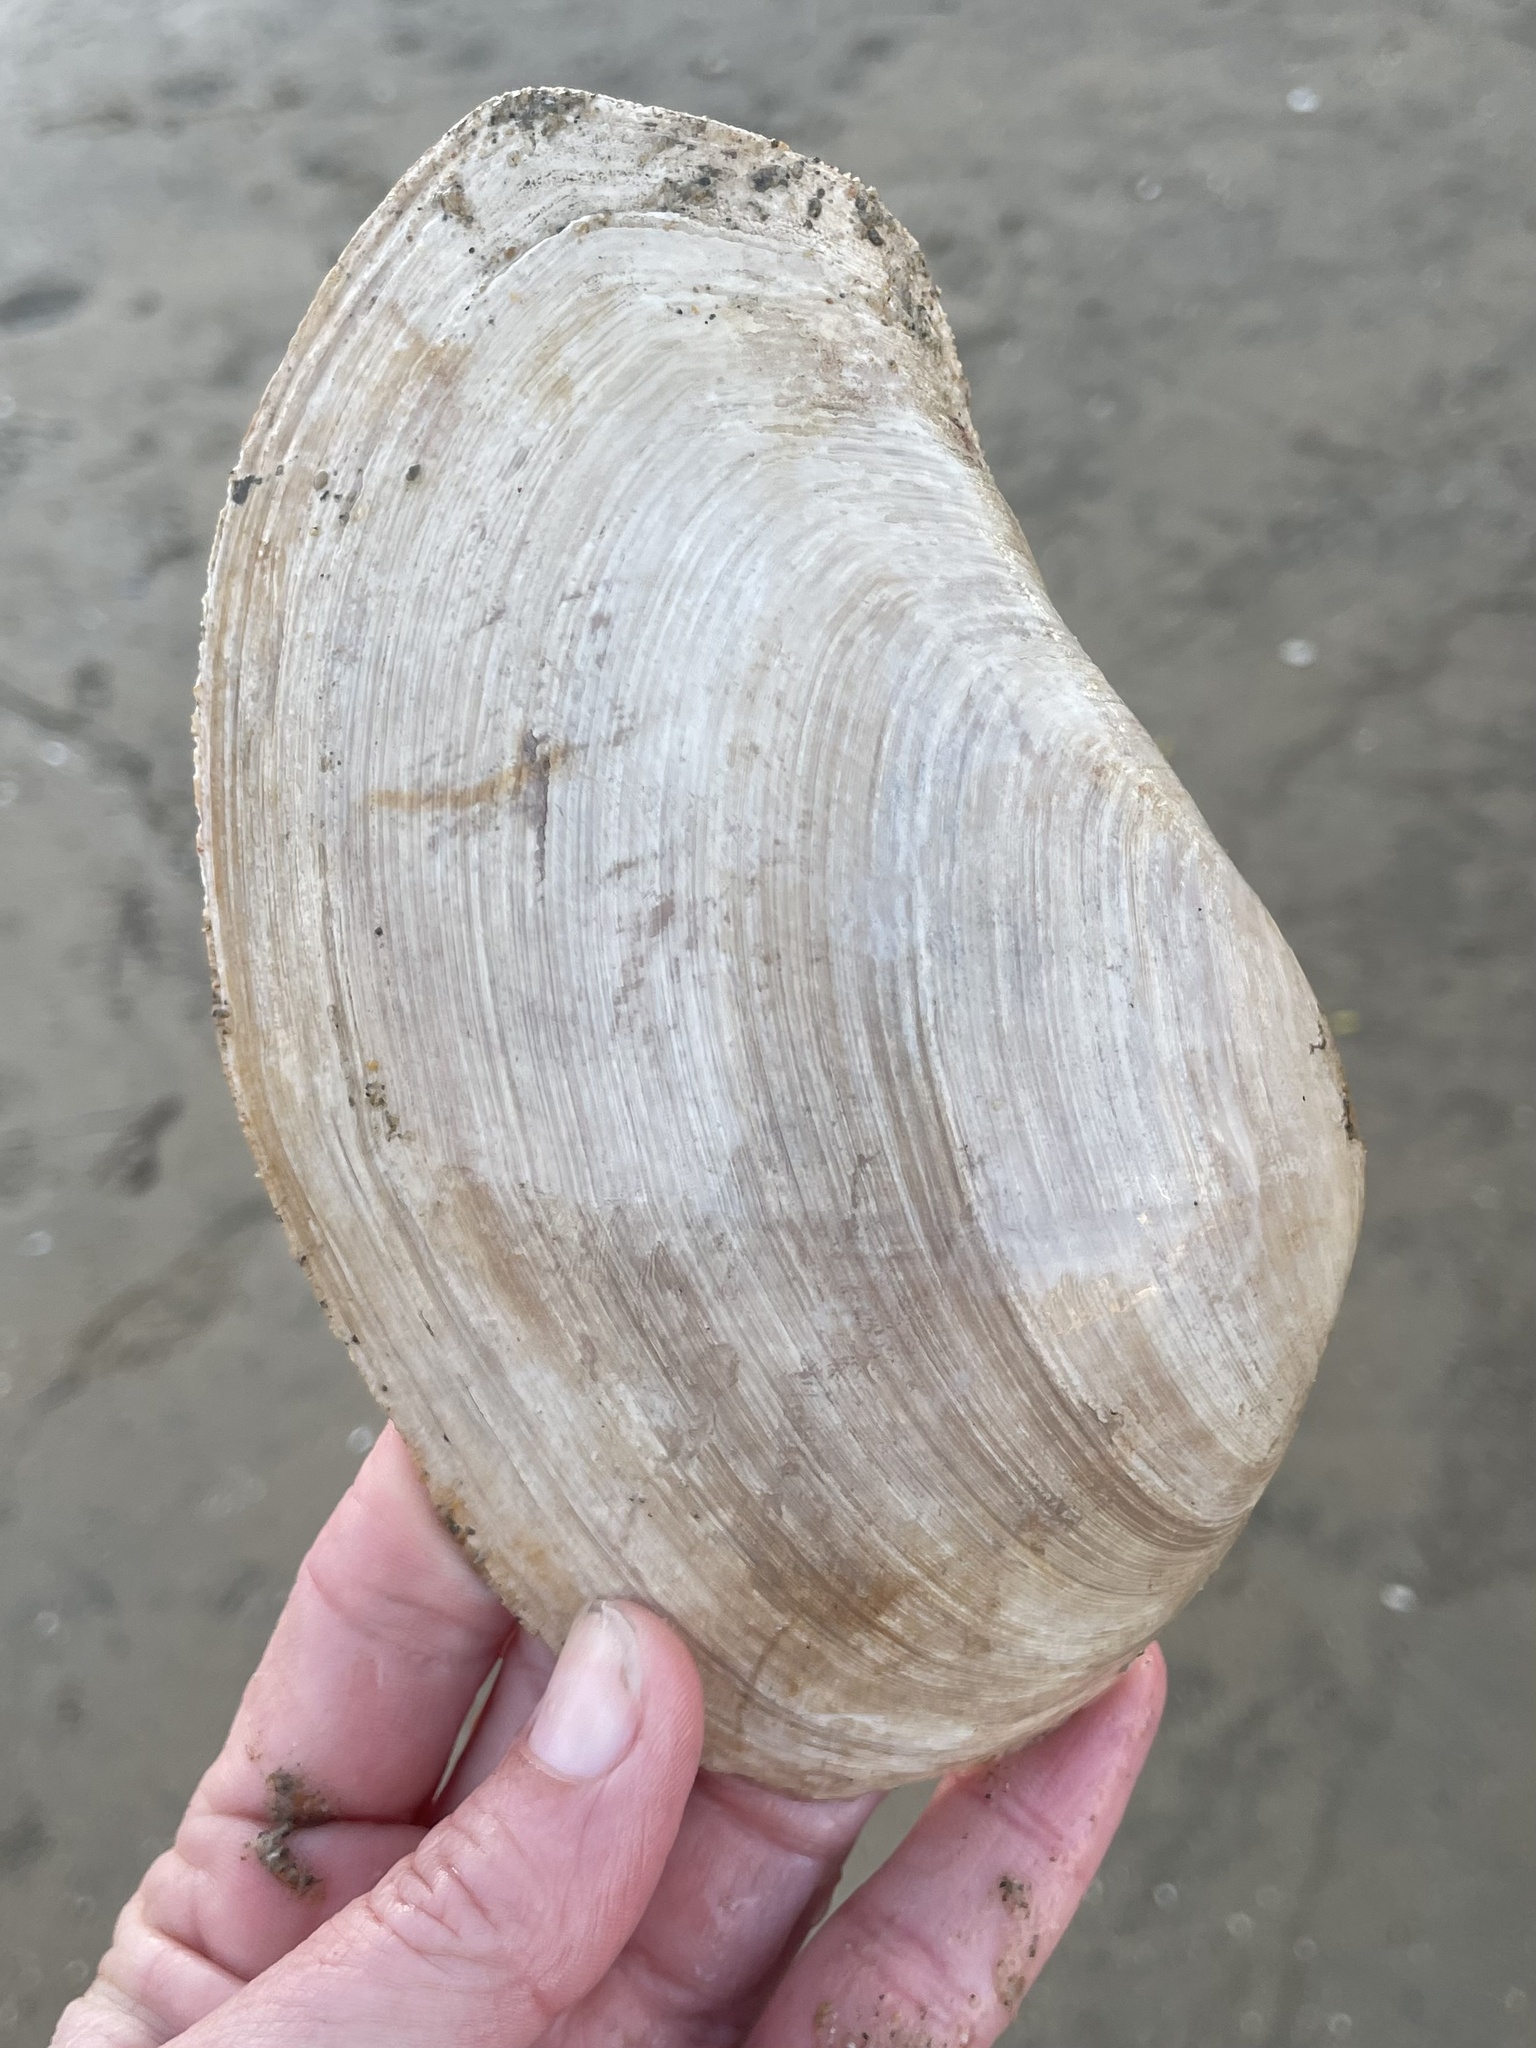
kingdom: Animalia
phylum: Mollusca
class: Bivalvia
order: Venerida
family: Mactridae
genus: Tresus
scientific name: Tresus nuttallii
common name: Pacific gaper clam
